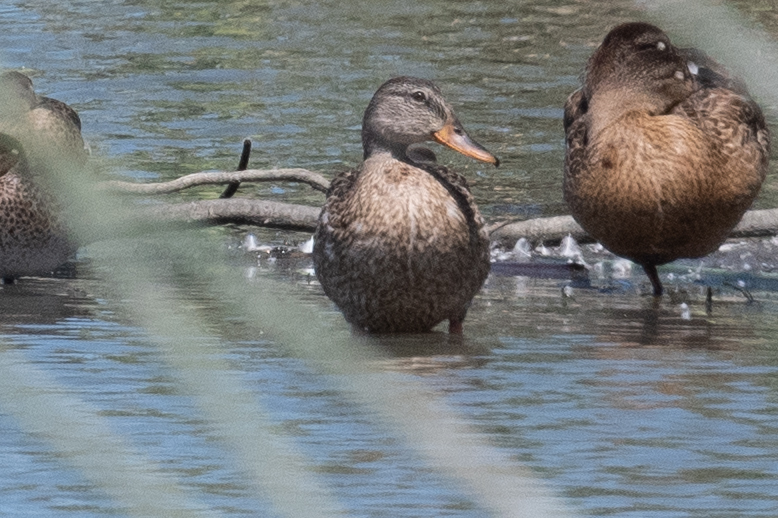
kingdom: Animalia
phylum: Chordata
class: Aves
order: Anseriformes
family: Anatidae
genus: Anas
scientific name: Anas platyrhynchos
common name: Mallard
